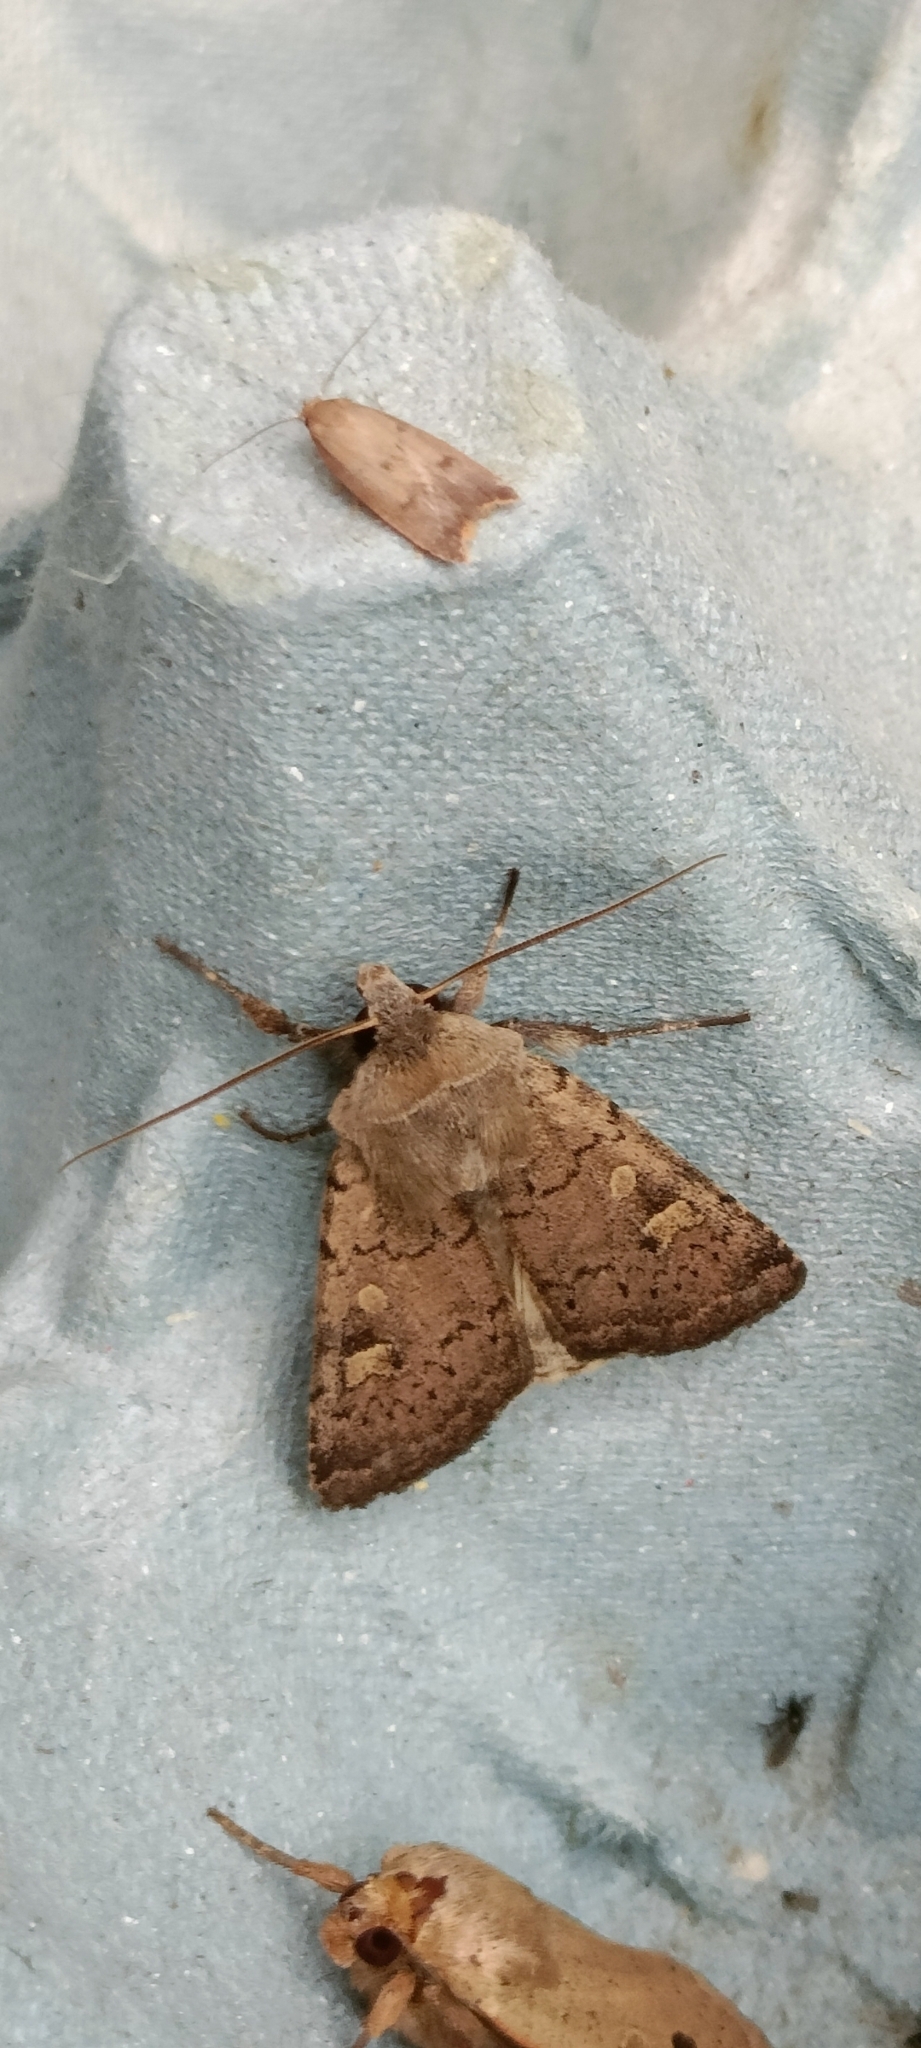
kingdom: Animalia
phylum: Arthropoda
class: Insecta
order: Lepidoptera
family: Noctuidae
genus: Xestia
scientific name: Xestia xanthographa
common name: Square-spot rustic
